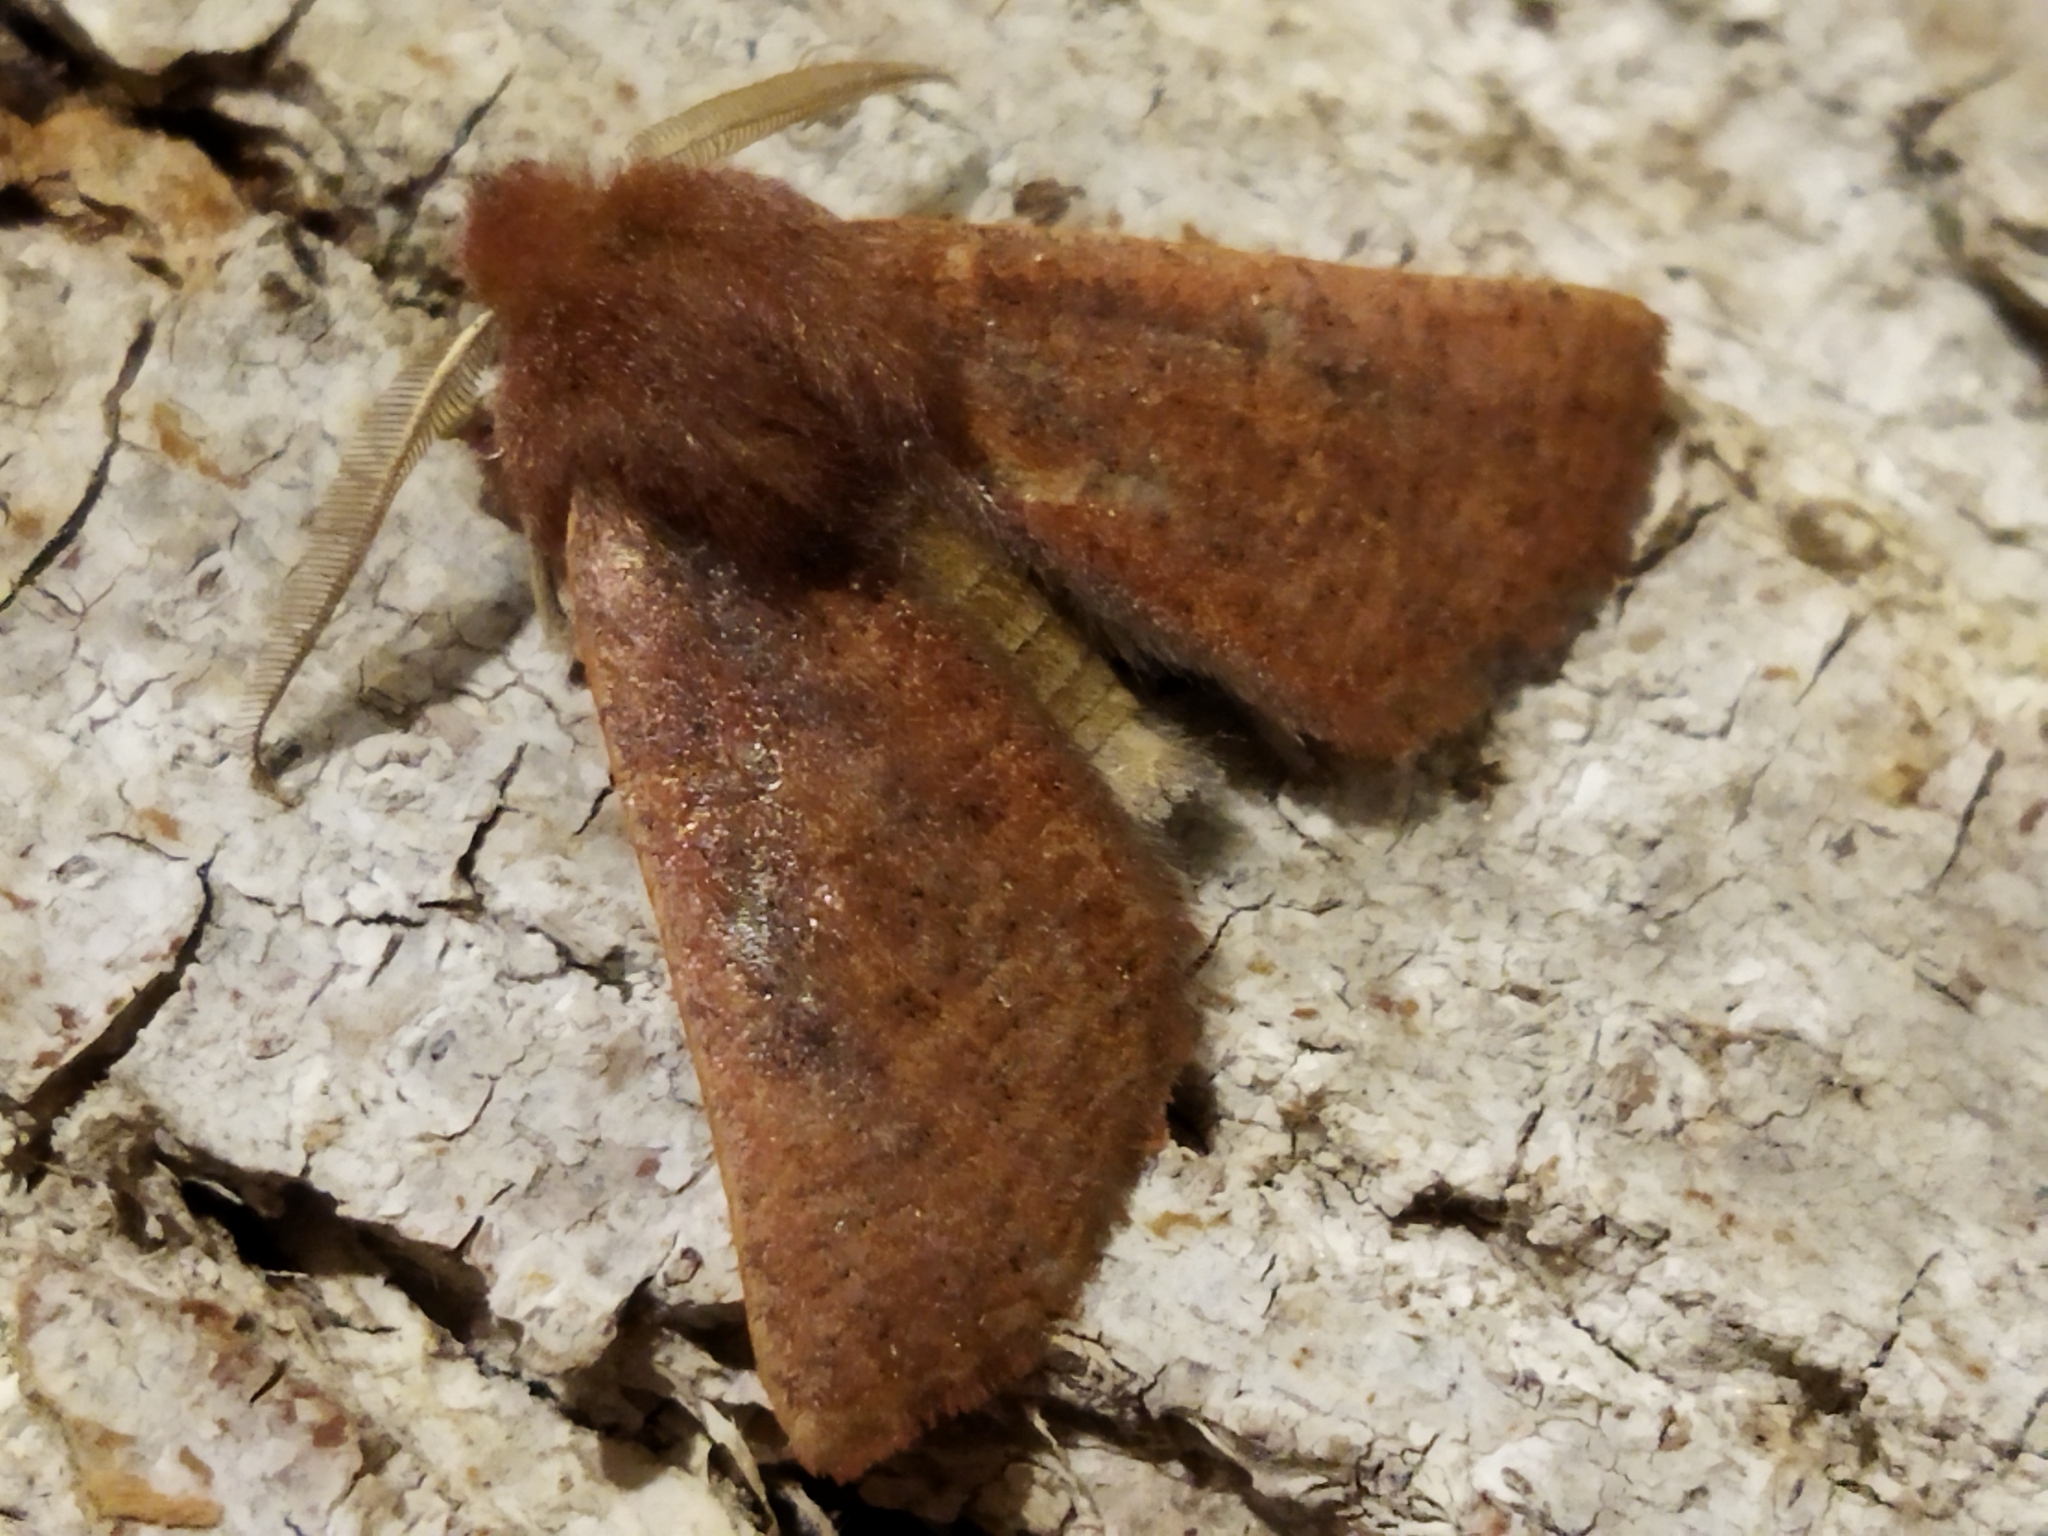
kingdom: Animalia
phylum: Arthropoda
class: Insecta
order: Lepidoptera
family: Geometridae
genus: Dasycorsa
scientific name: Dasycorsa modesta
